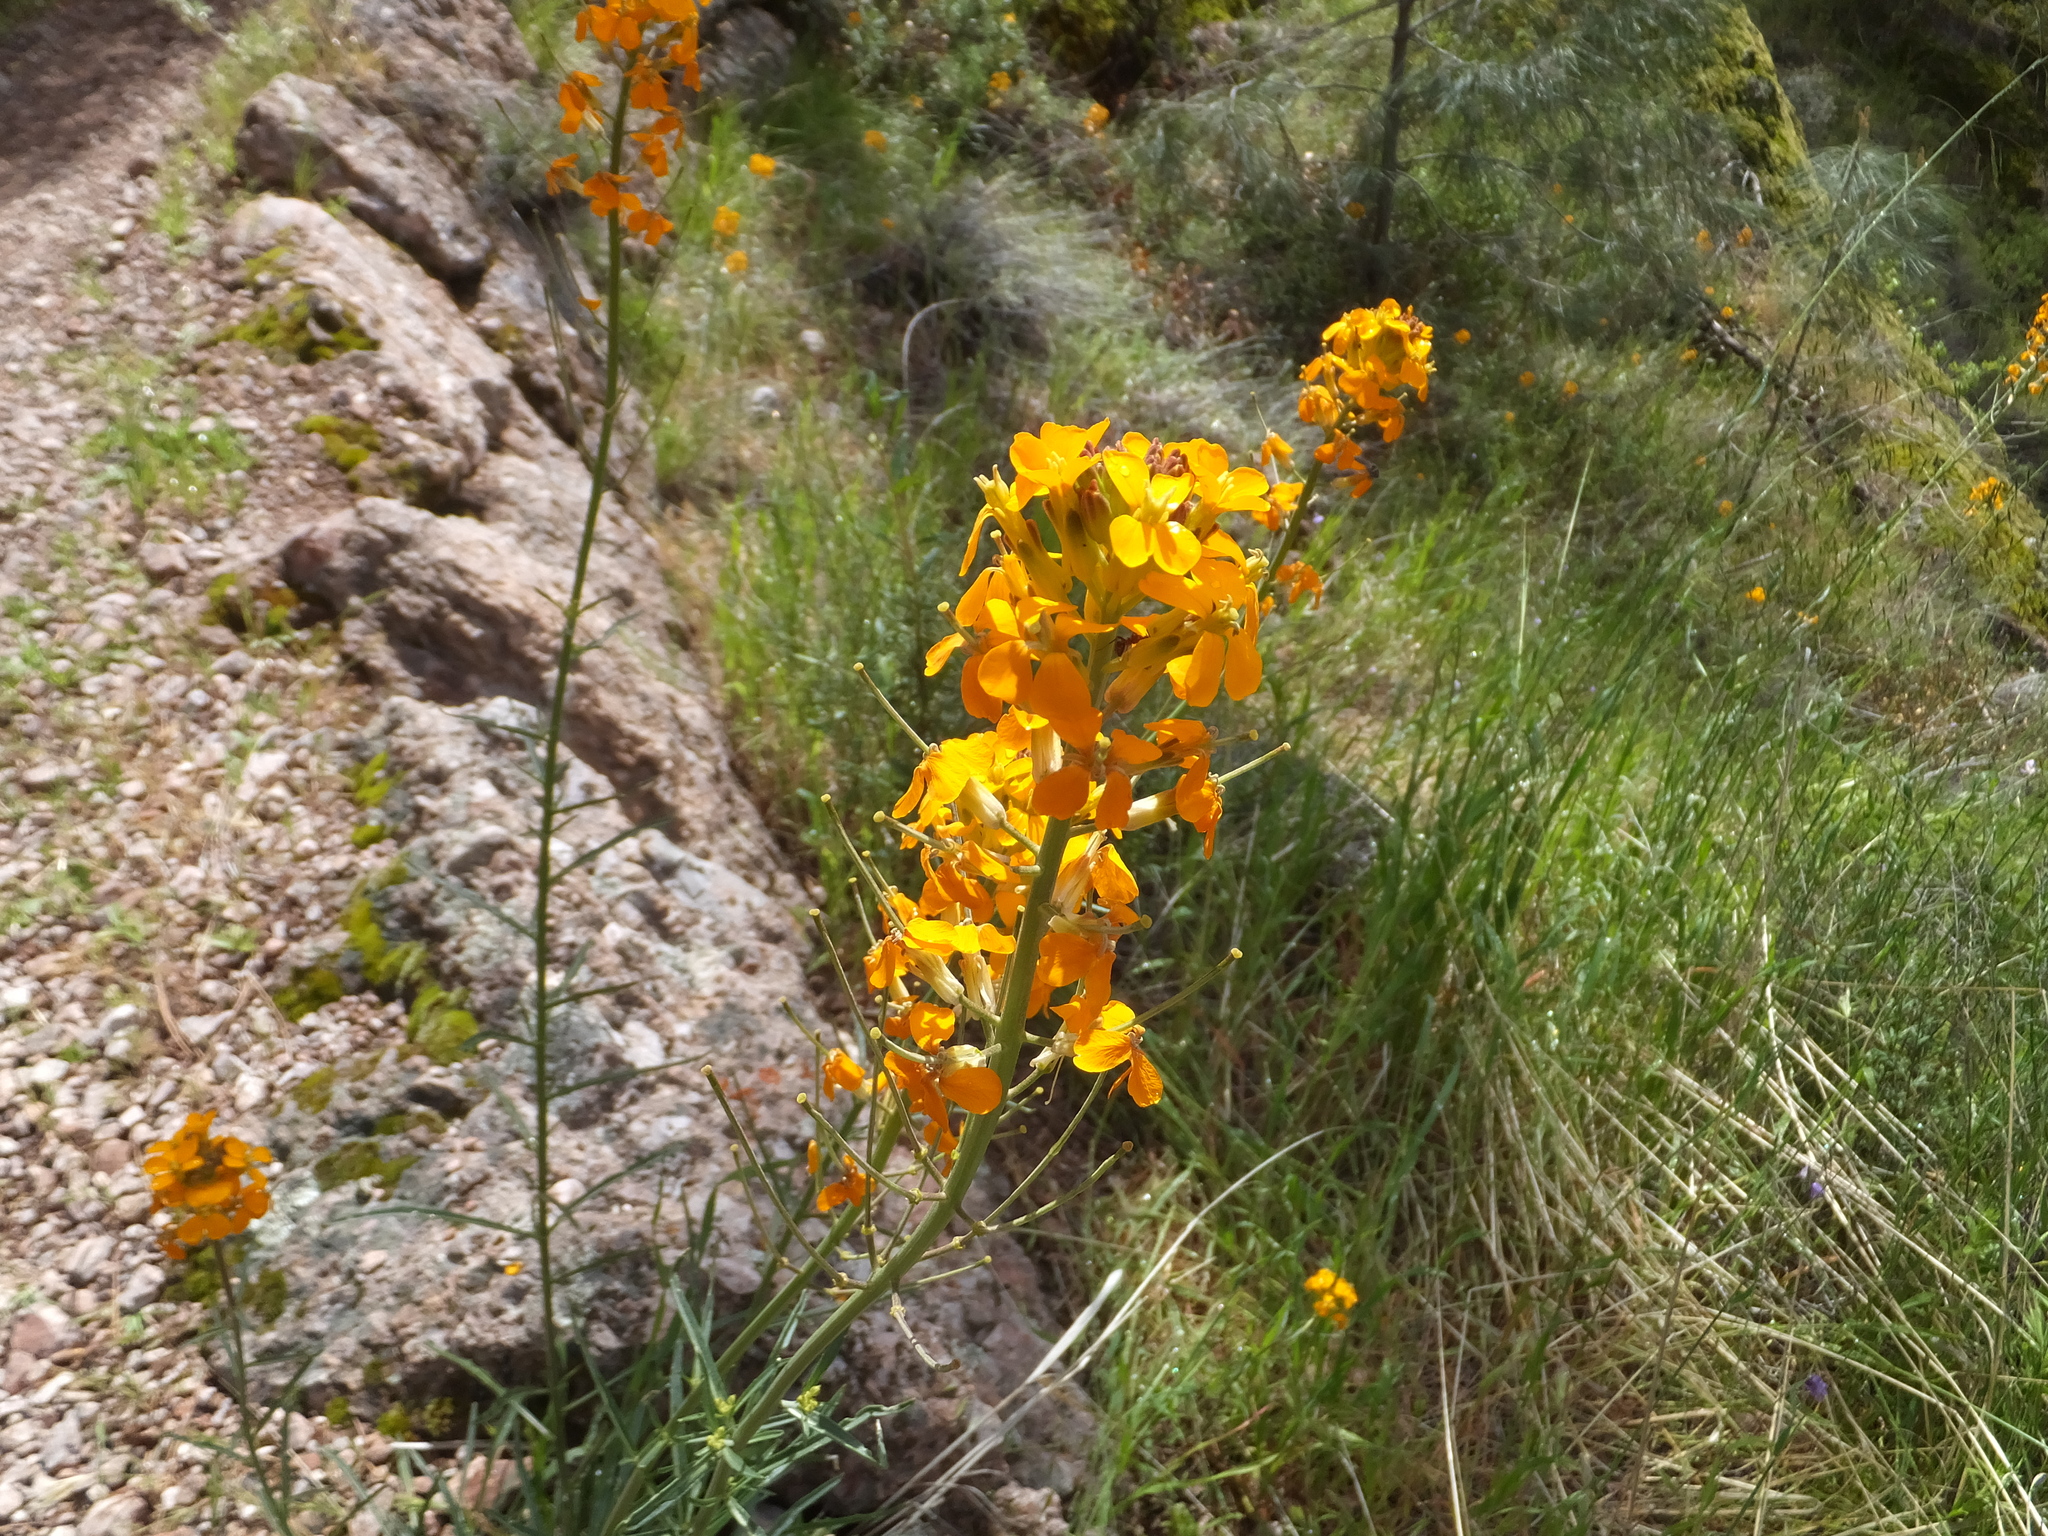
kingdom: Plantae
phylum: Tracheophyta
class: Magnoliopsida
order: Brassicales
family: Brassicaceae
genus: Erysimum
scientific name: Erysimum capitatum
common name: Western wallflower
